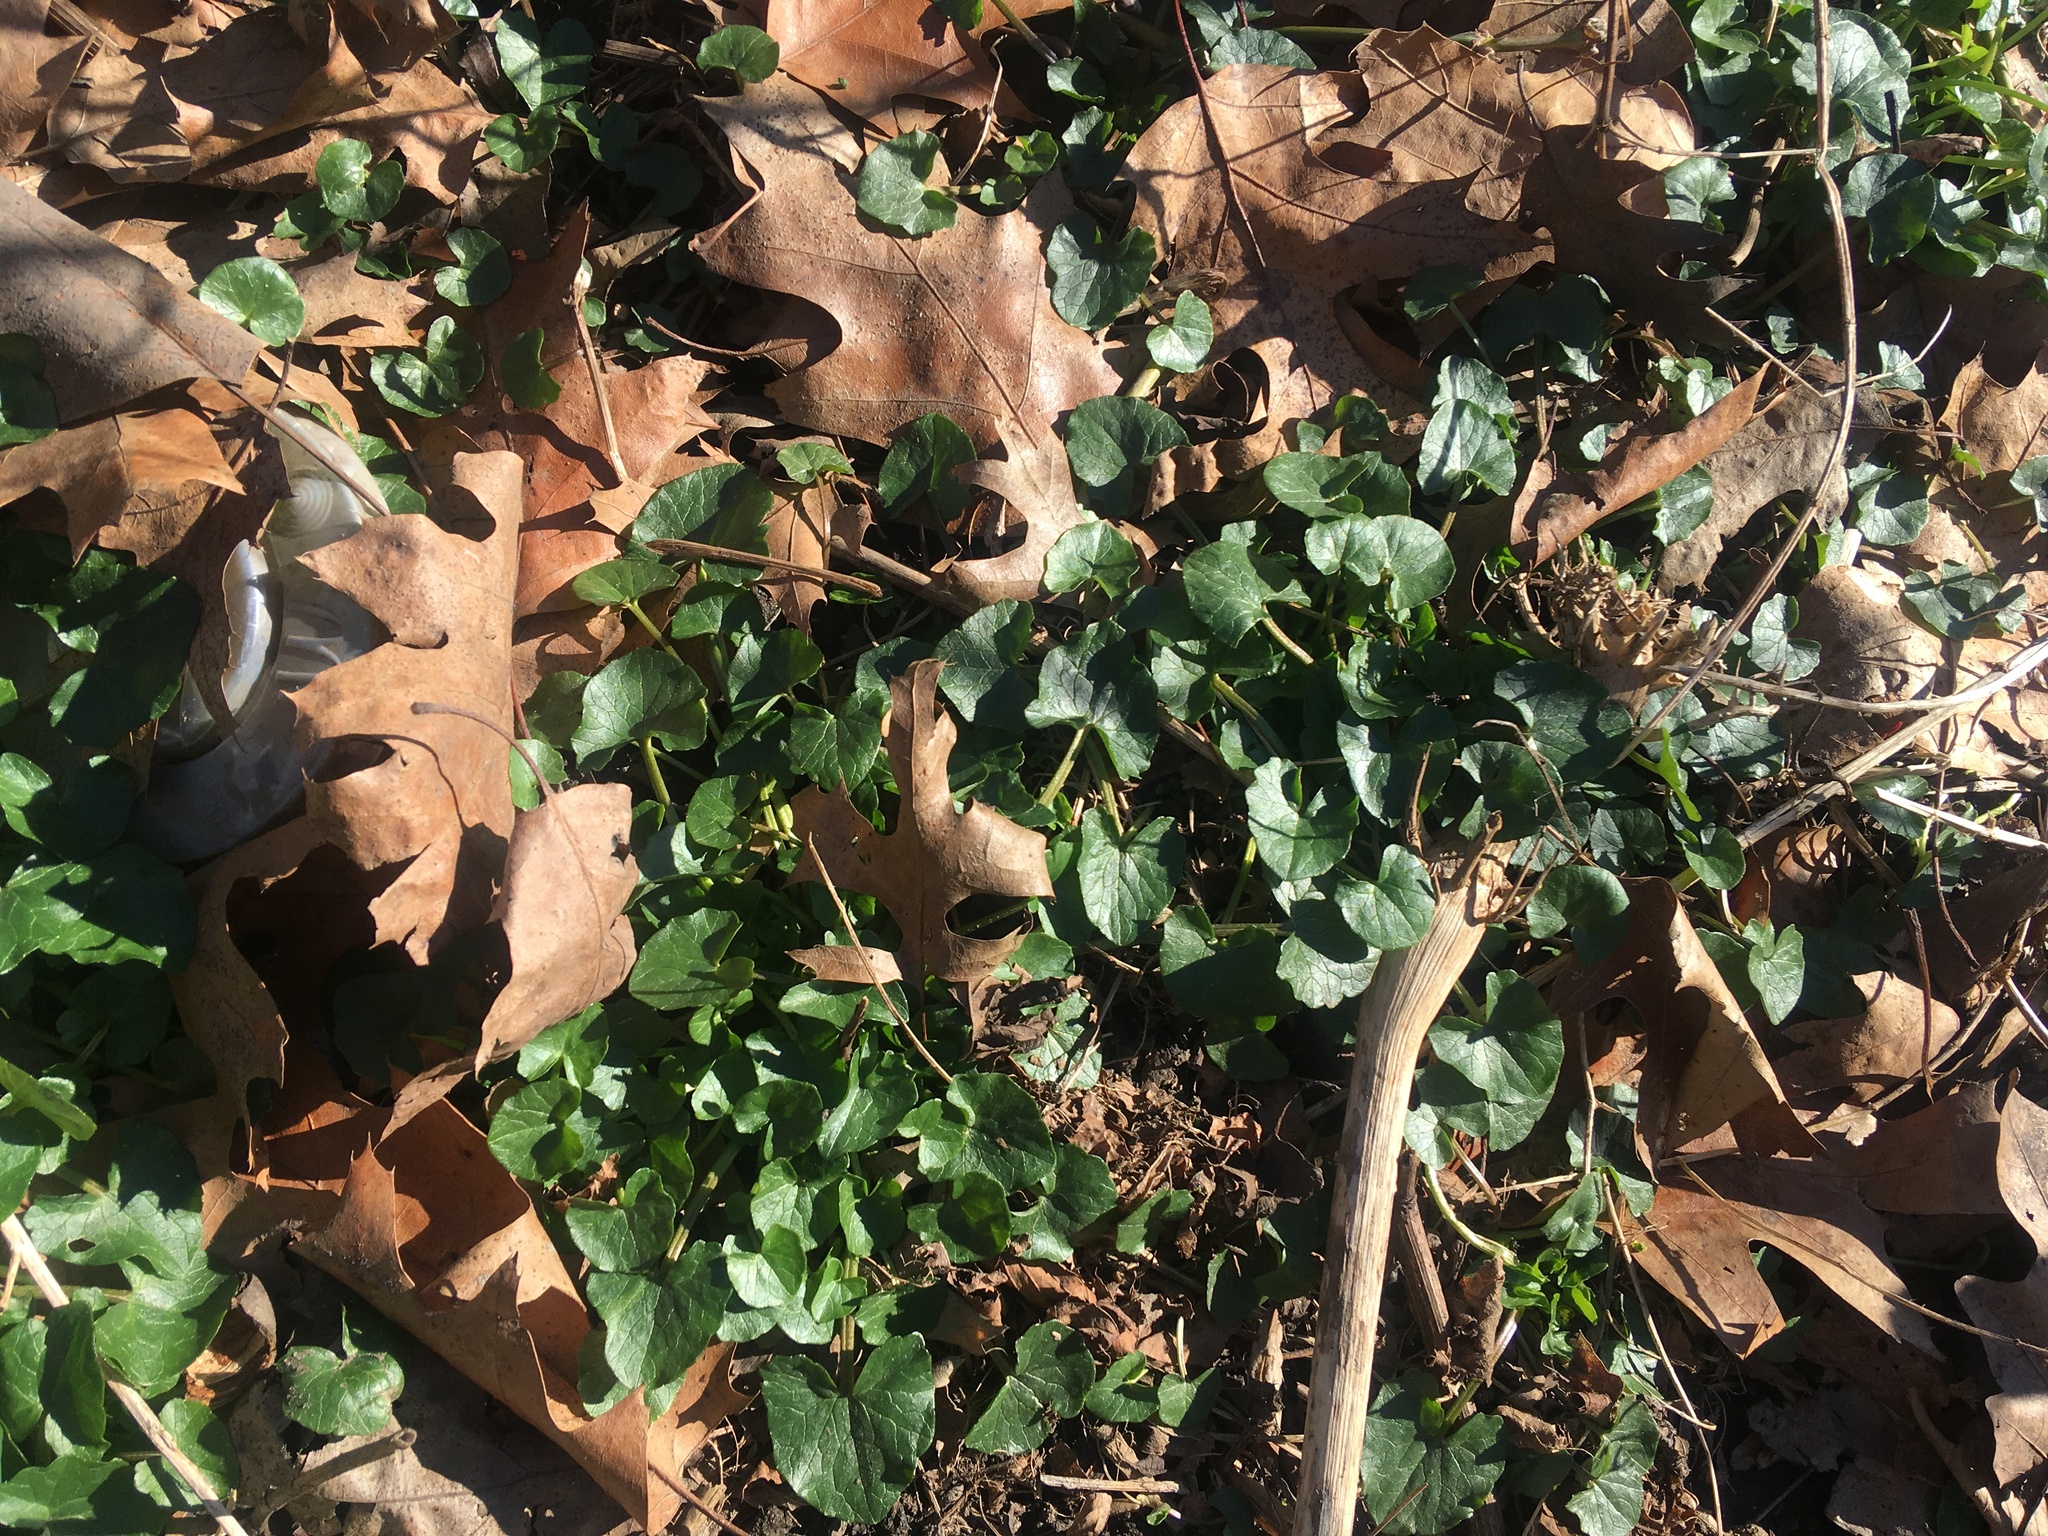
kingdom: Plantae
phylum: Tracheophyta
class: Magnoliopsida
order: Ranunculales
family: Ranunculaceae
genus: Ficaria
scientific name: Ficaria verna
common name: Lesser celandine
